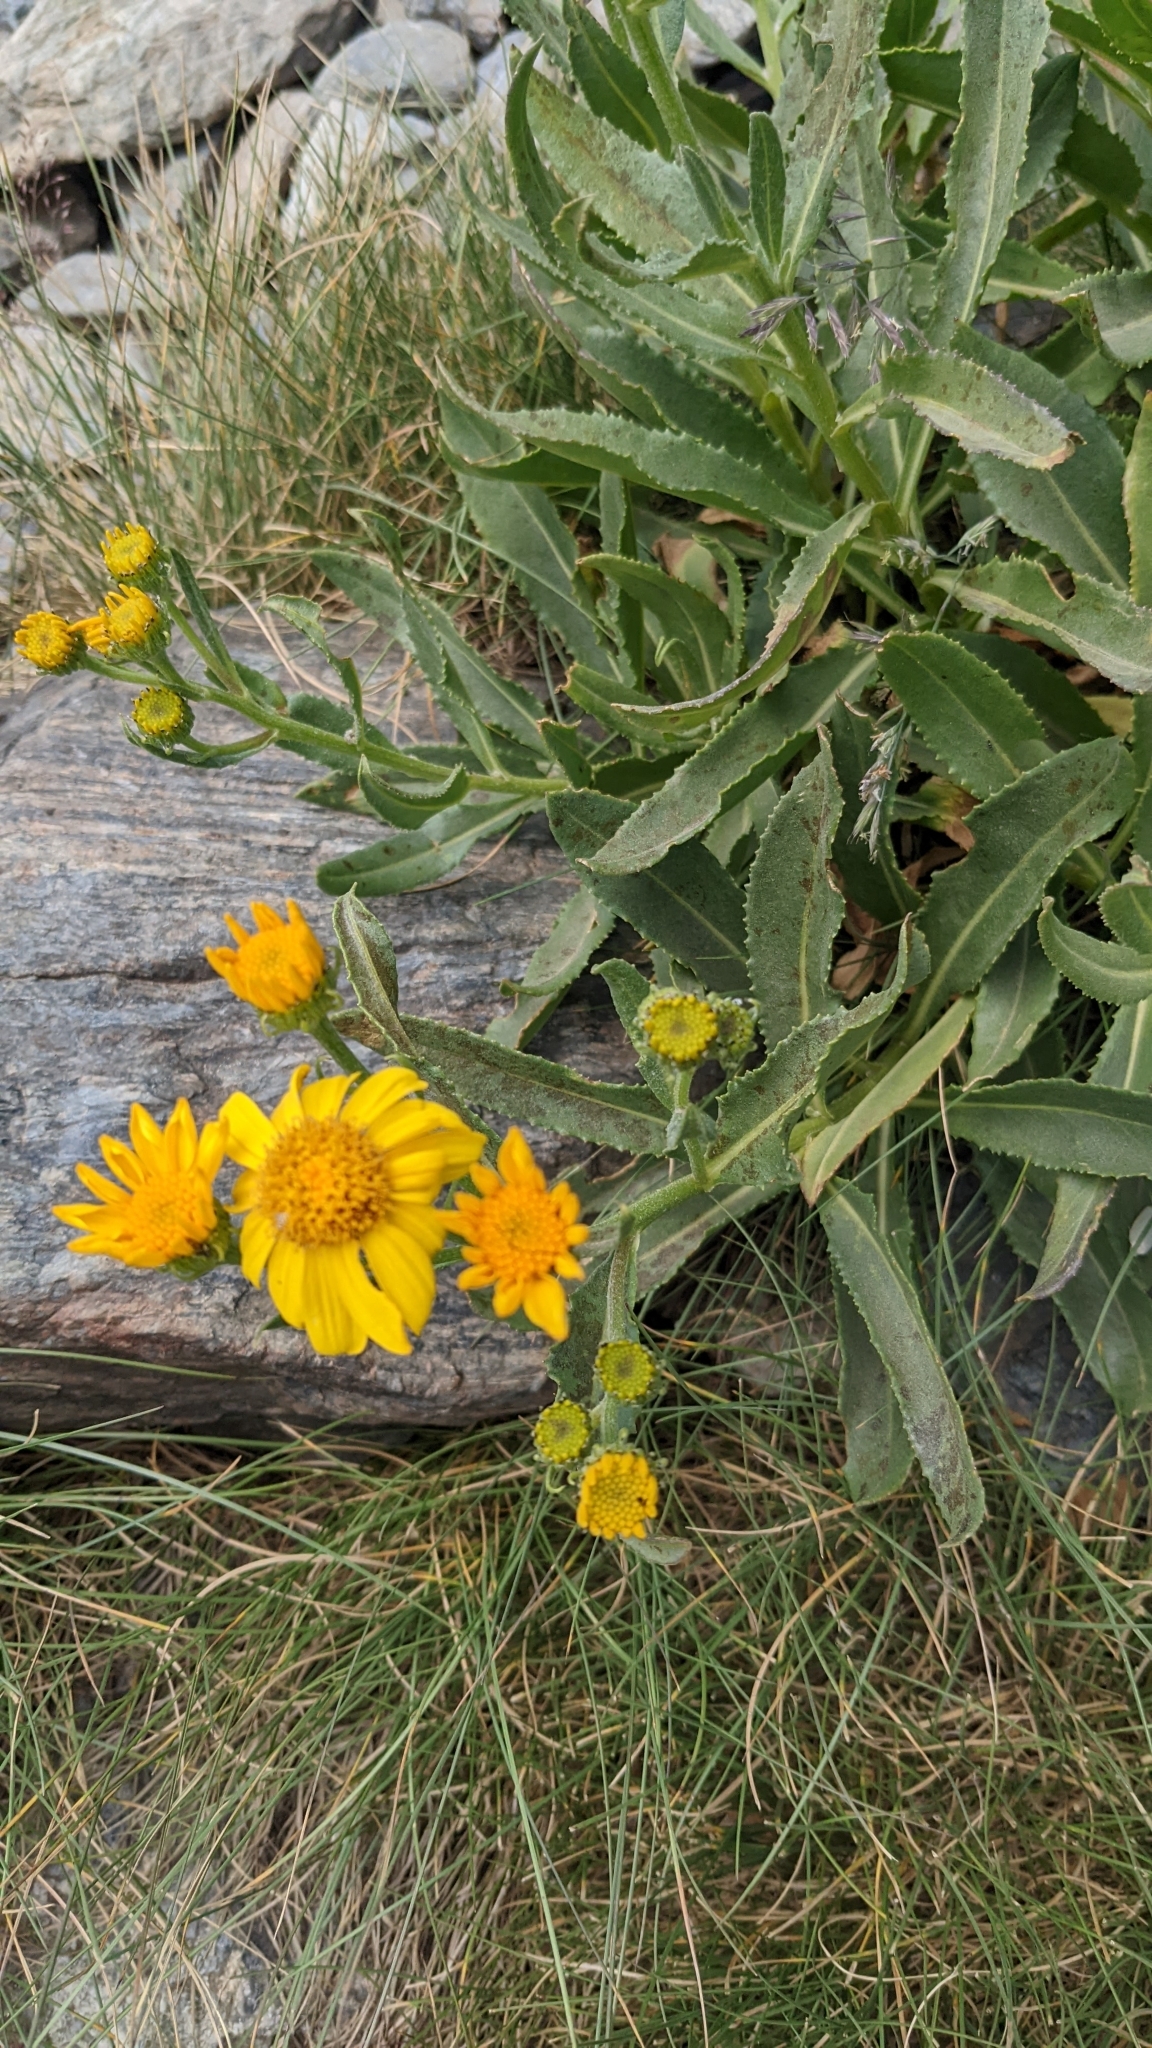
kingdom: Plantae
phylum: Tracheophyta
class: Magnoliopsida
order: Asterales
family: Asteraceae
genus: Senecio
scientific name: Senecio pyrenaicus
